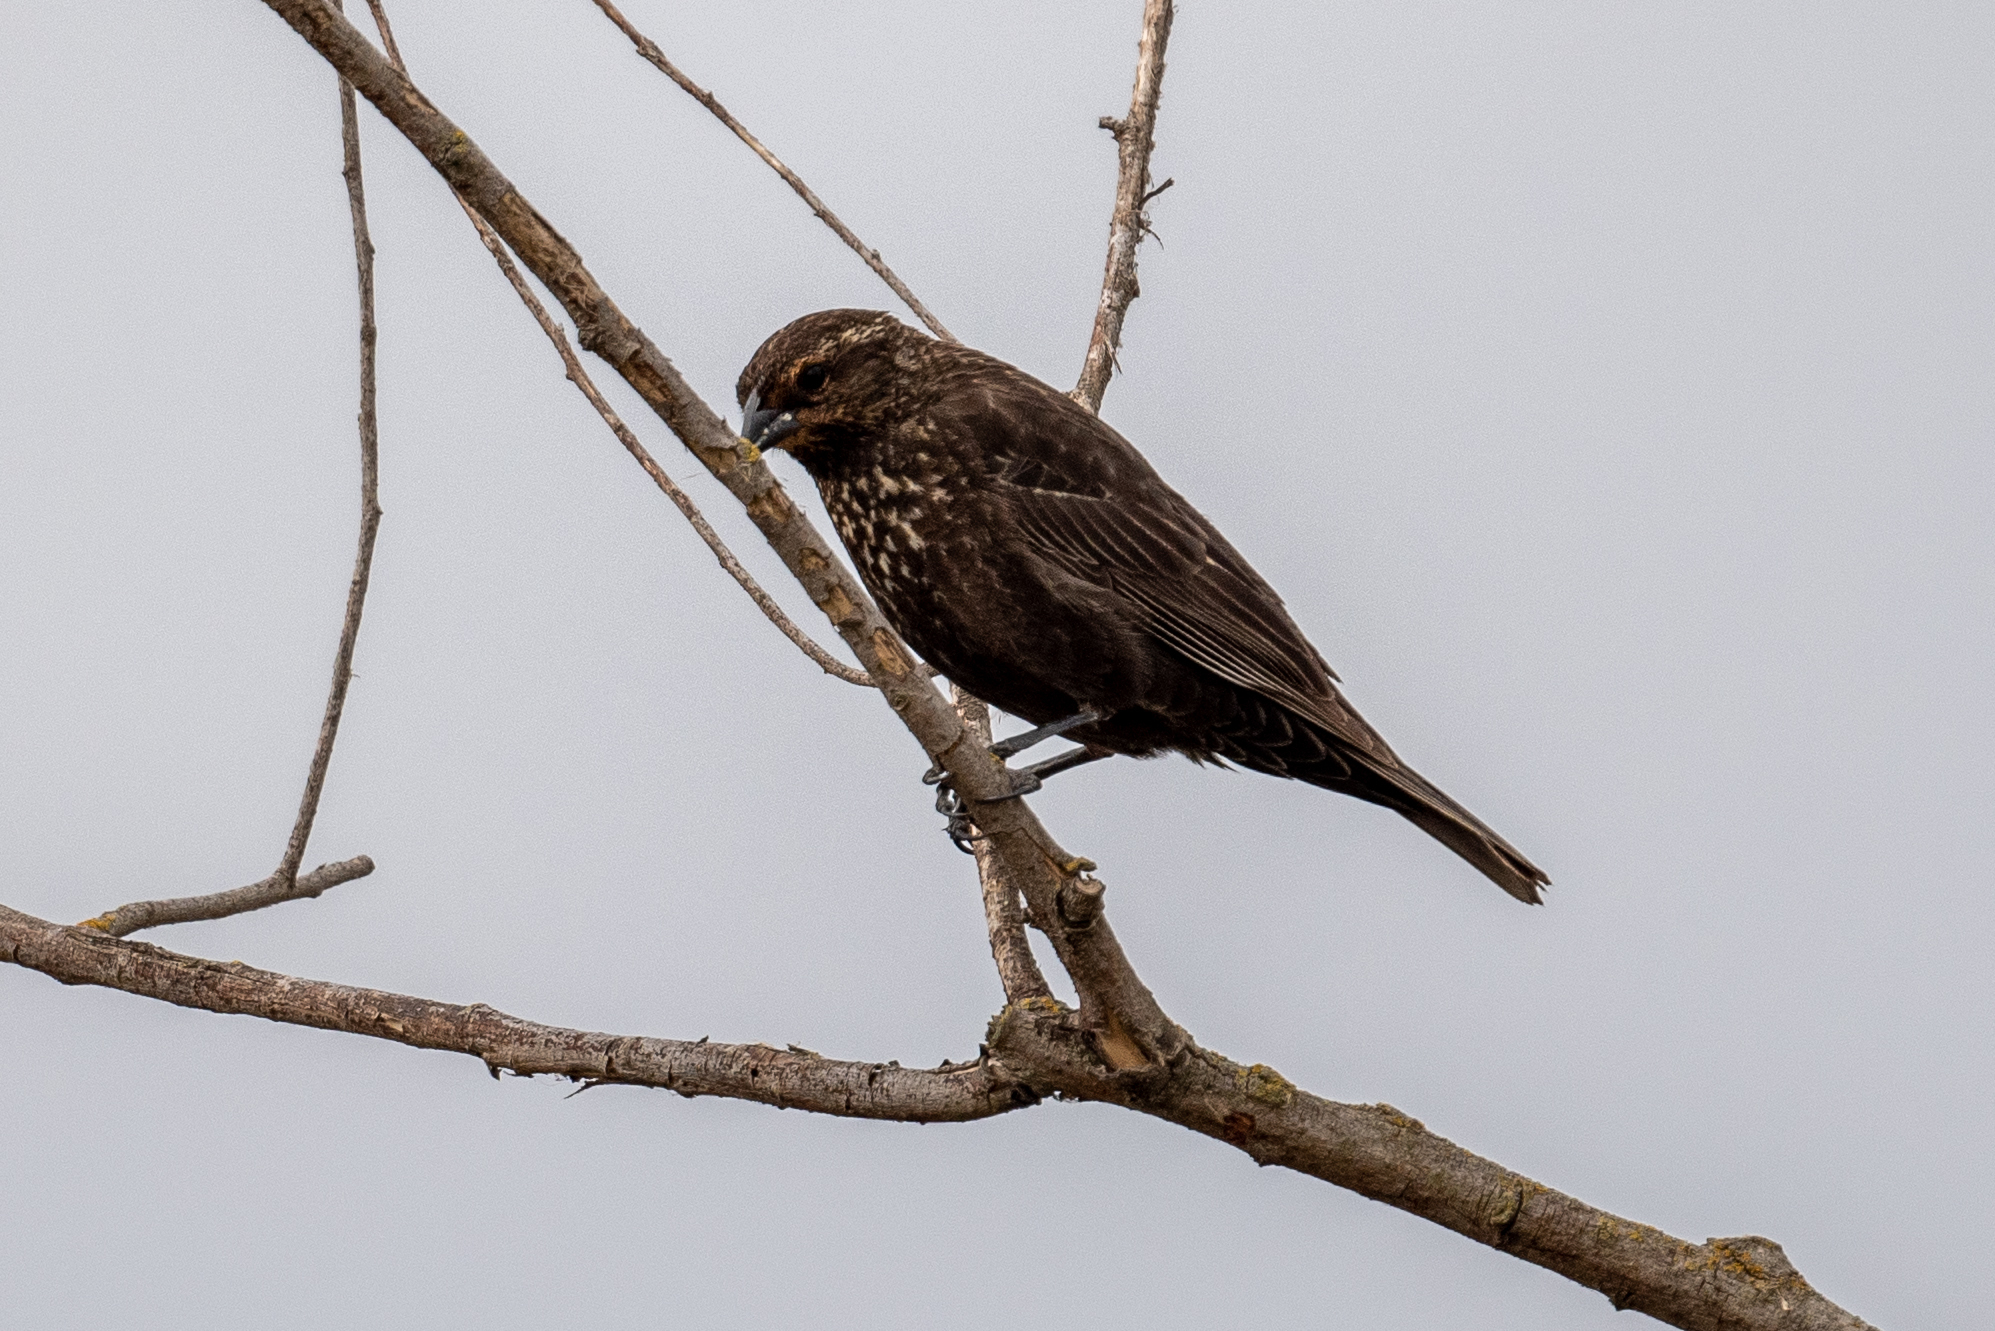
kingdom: Animalia
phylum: Chordata
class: Aves
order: Passeriformes
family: Icteridae
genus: Agelaius
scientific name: Agelaius phoeniceus
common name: Red-winged blackbird
